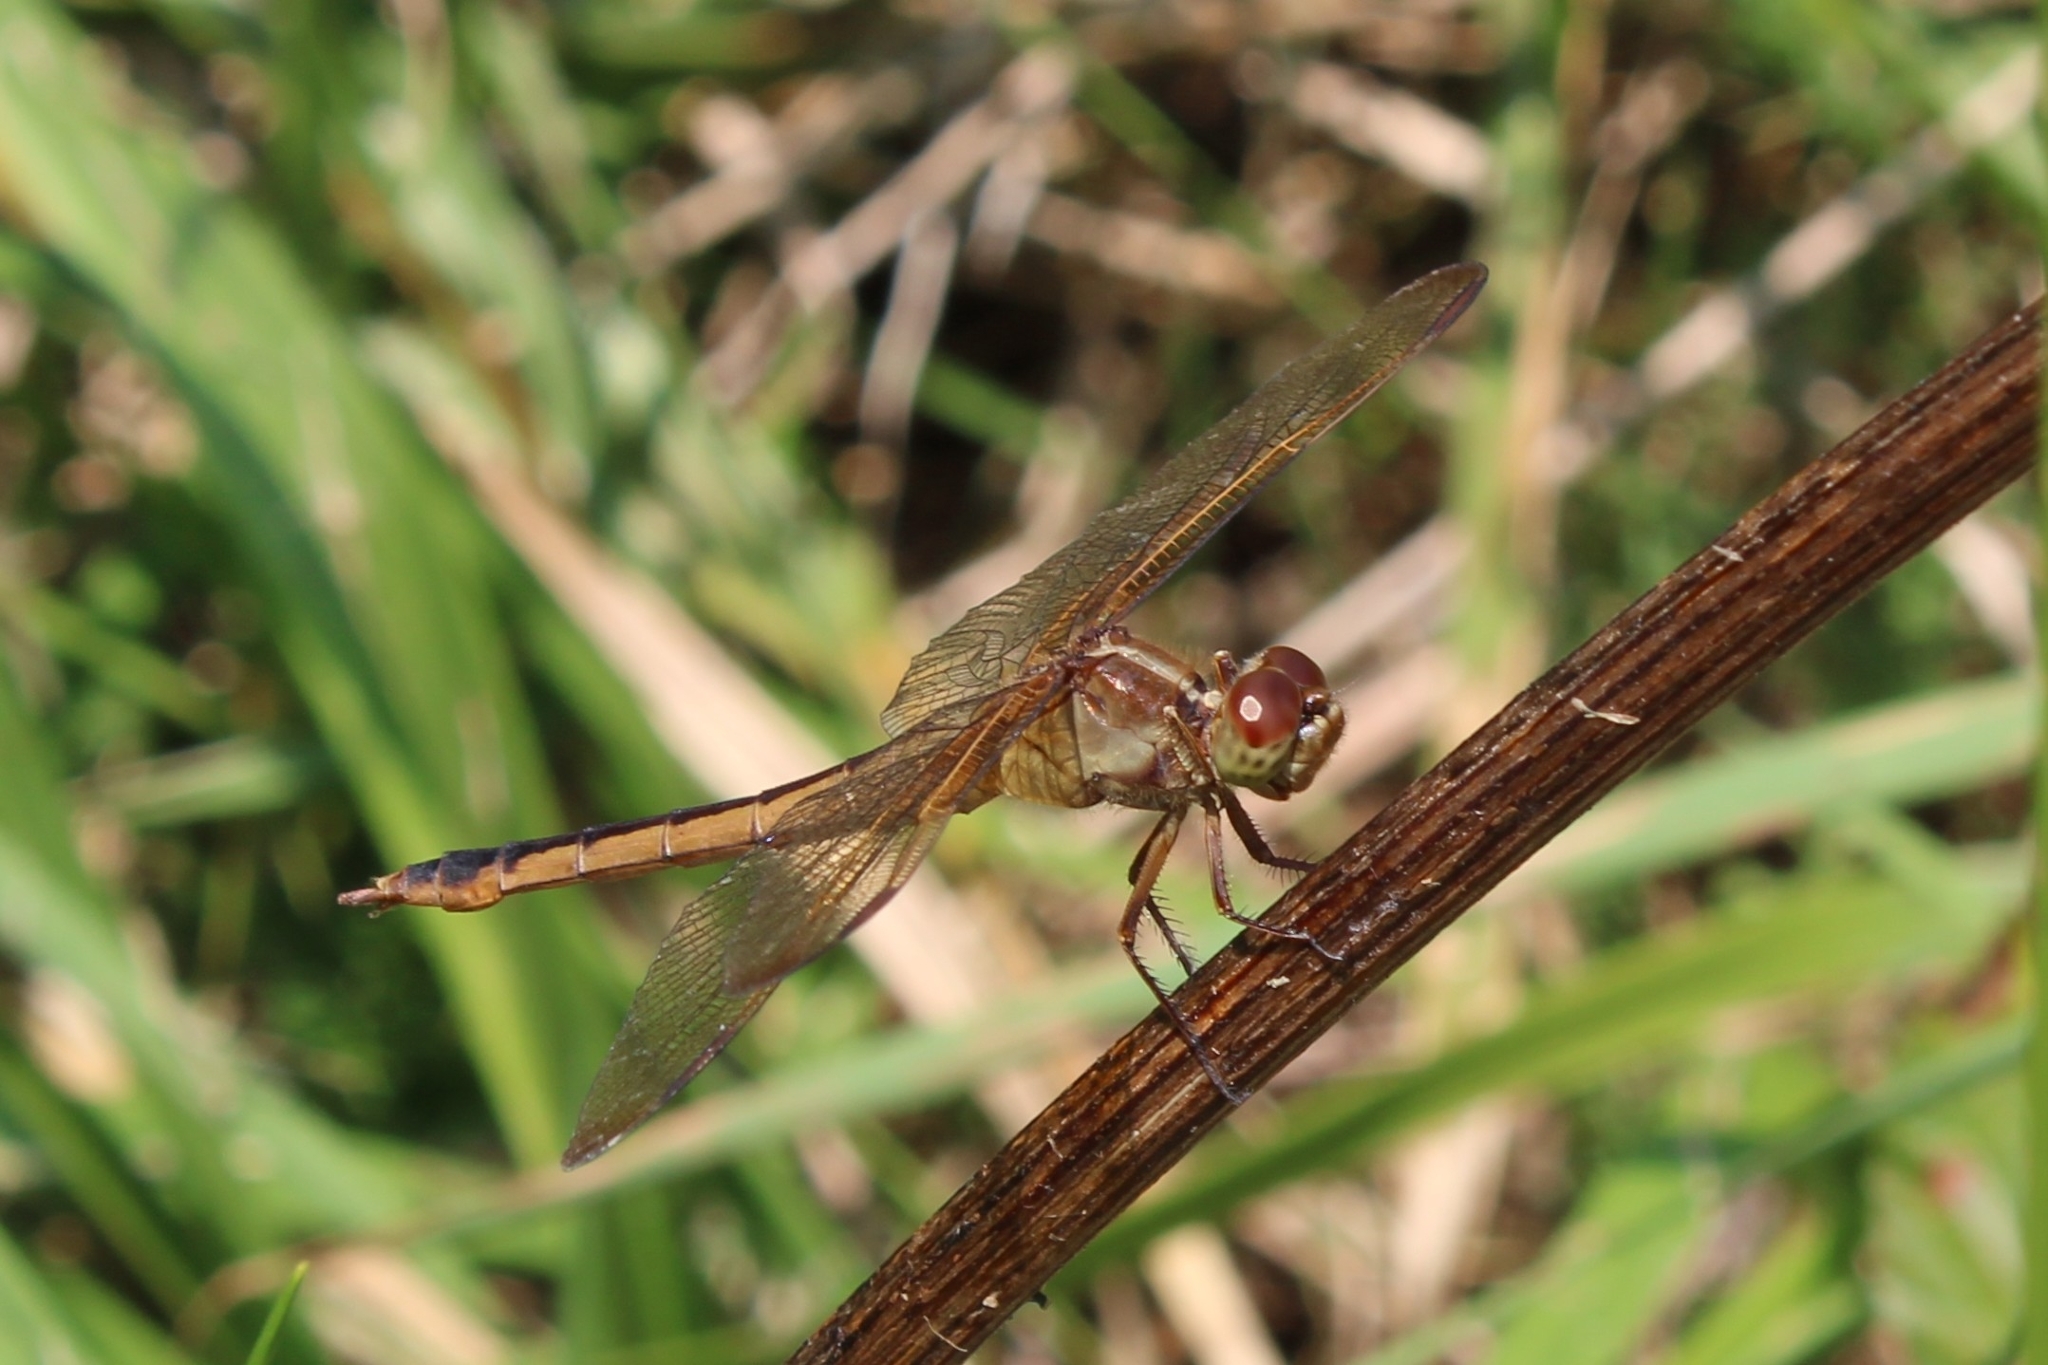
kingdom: Animalia
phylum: Arthropoda
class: Insecta
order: Odonata
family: Libellulidae
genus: Libellula
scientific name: Libellula needhami
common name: Needham's skimmer
